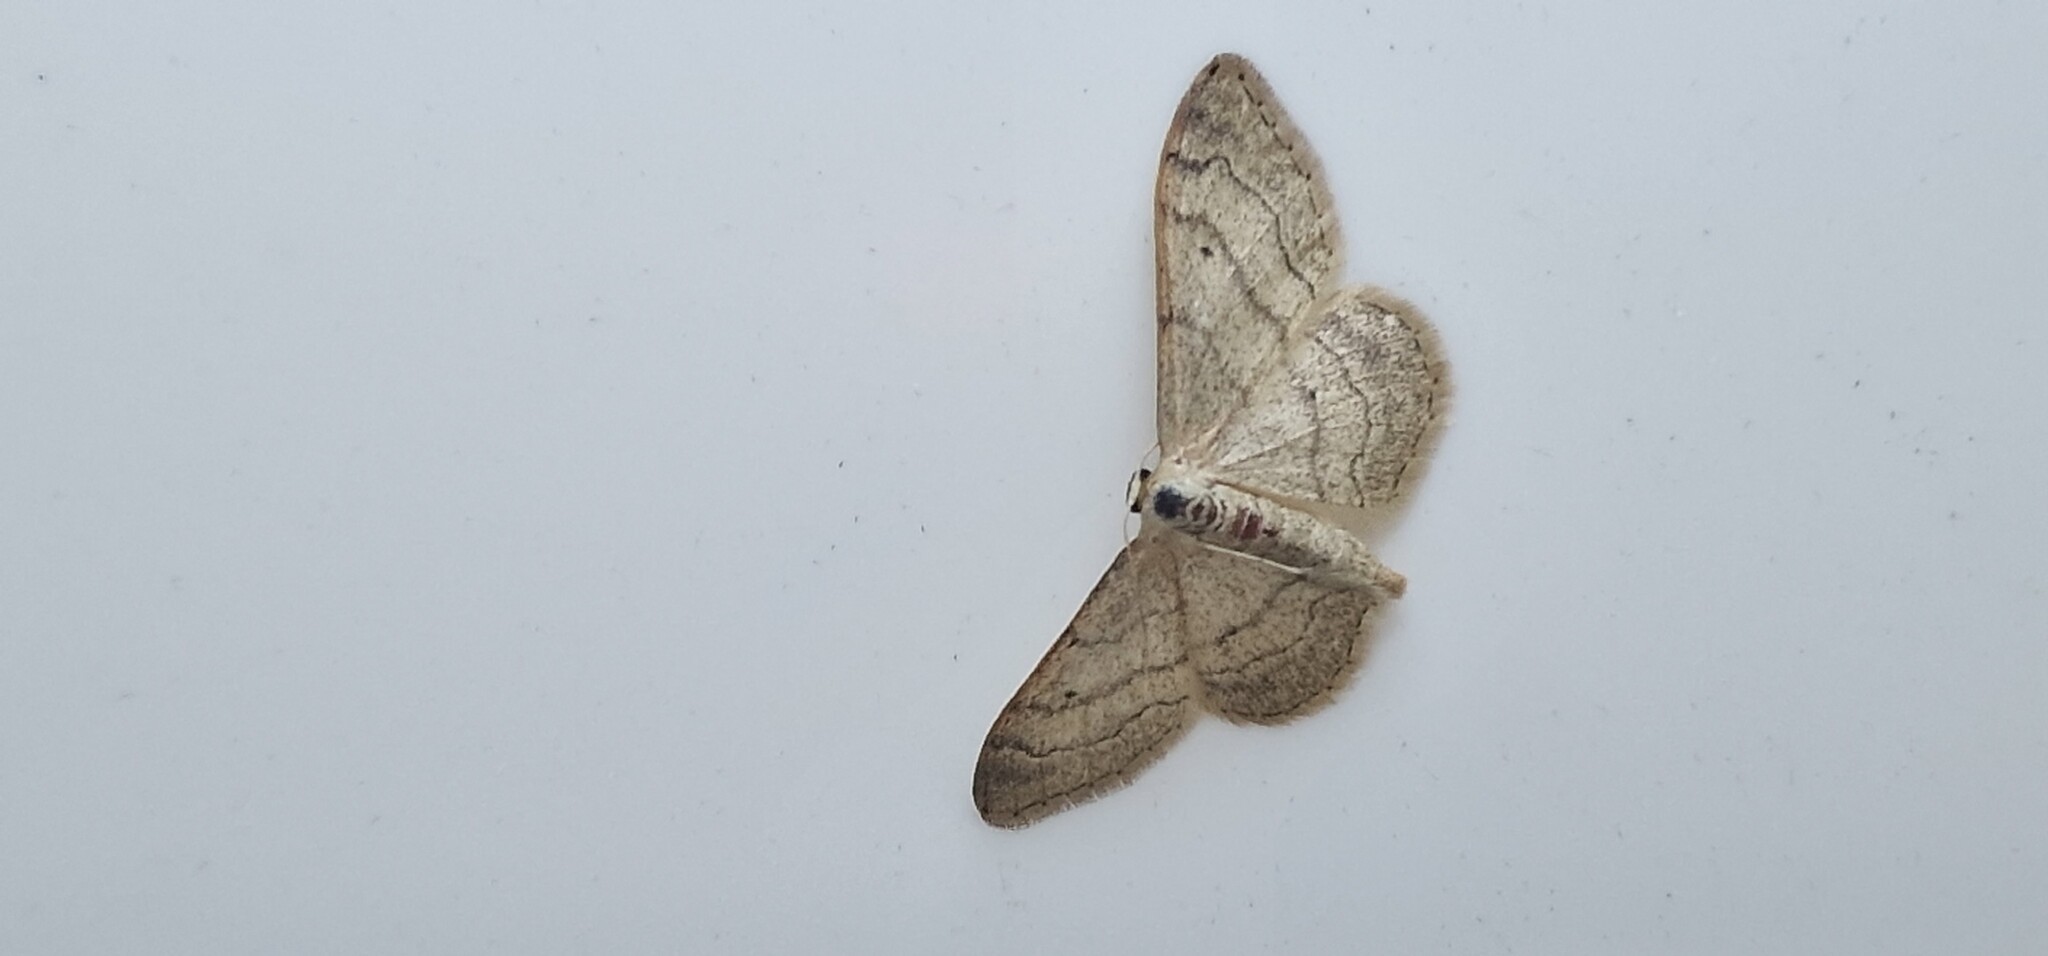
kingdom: Animalia
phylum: Arthropoda
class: Insecta
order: Lepidoptera
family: Geometridae
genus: Idaea
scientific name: Idaea aversata
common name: Riband wave
